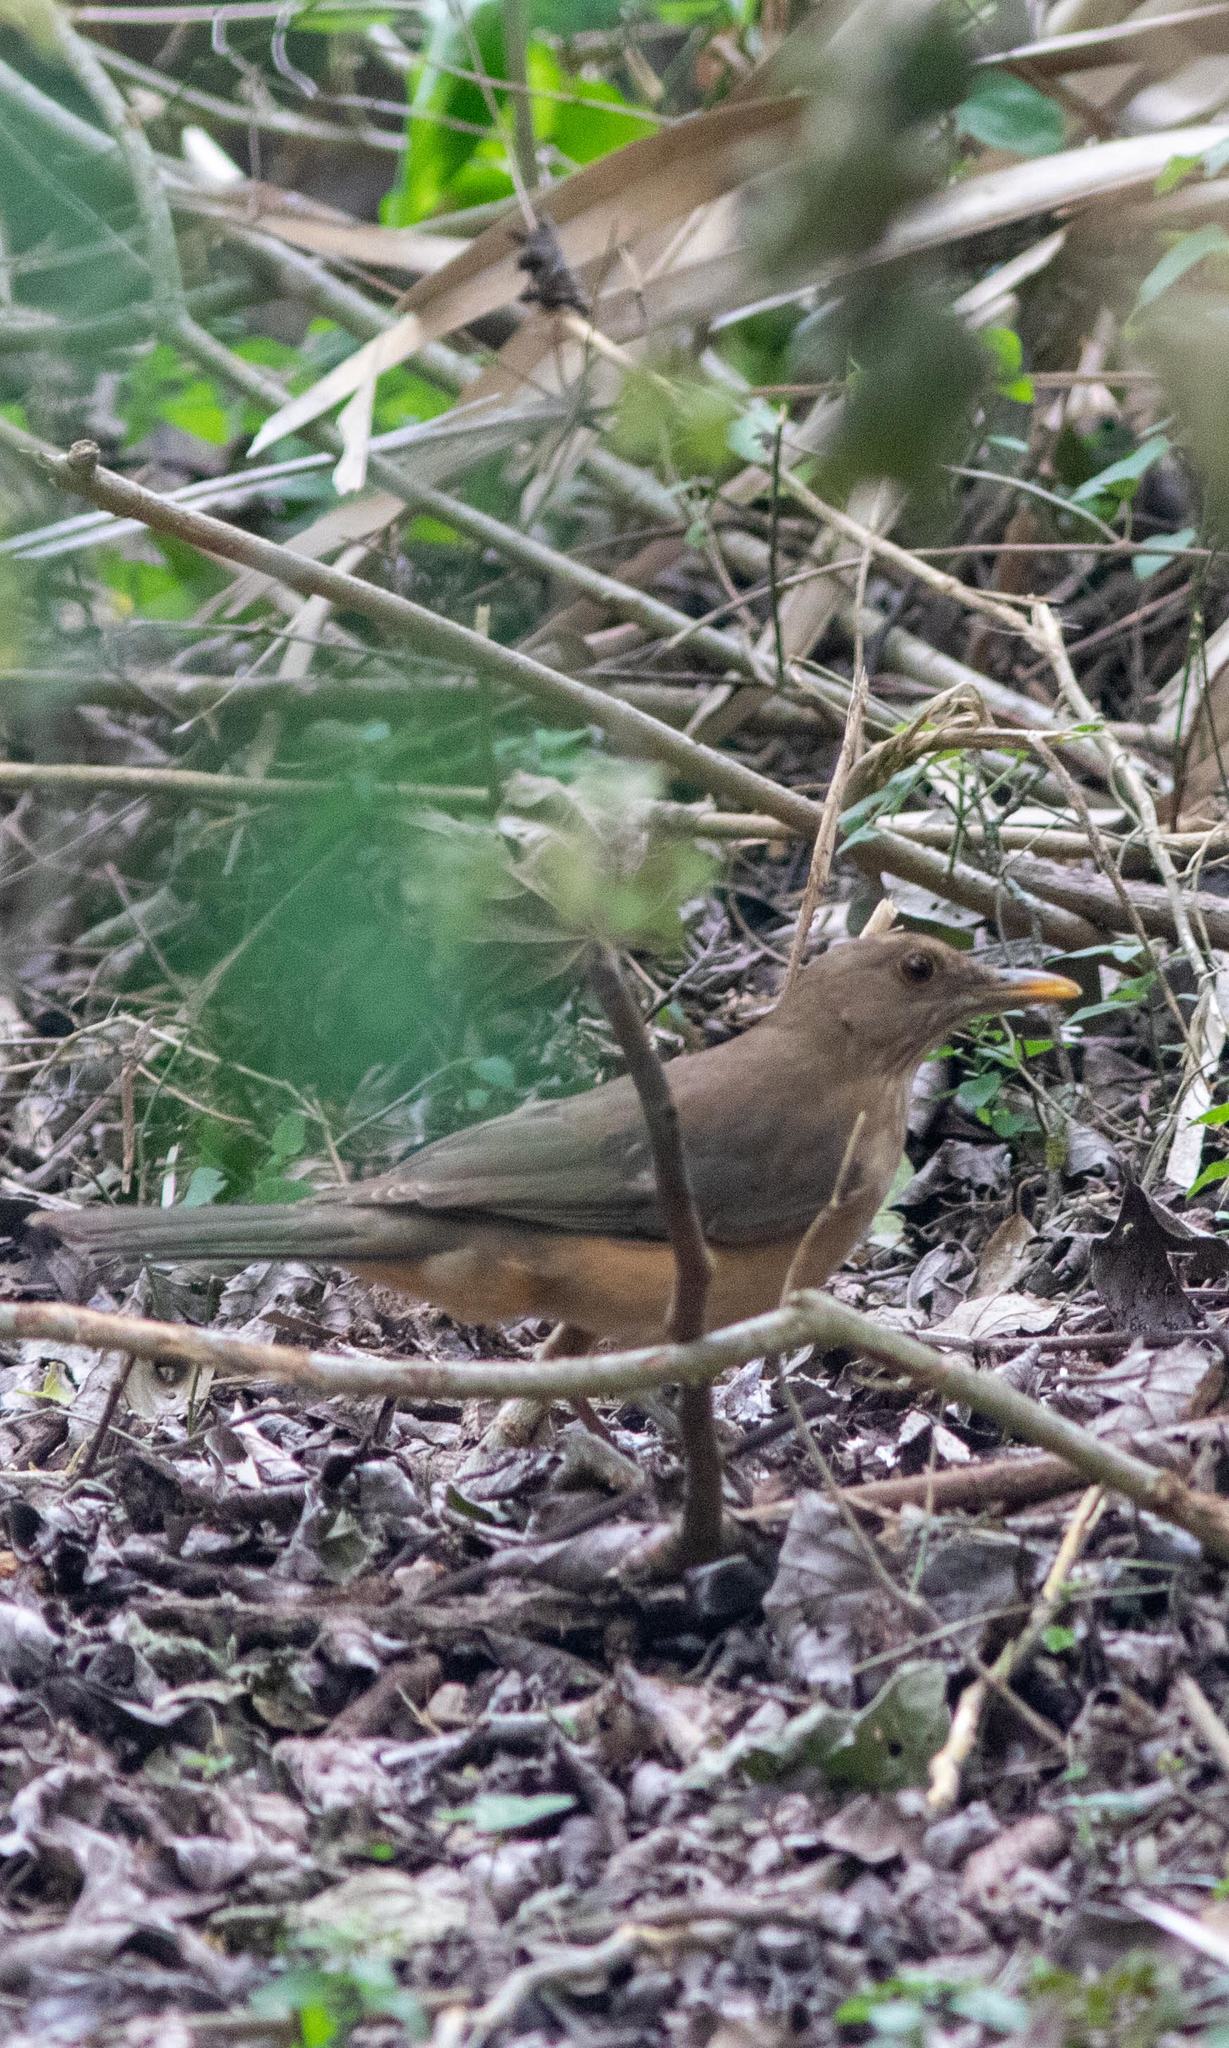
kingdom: Animalia
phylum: Chordata
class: Aves
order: Passeriformes
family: Turdidae
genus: Turdus
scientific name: Turdus grayi
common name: Clay-colored thrush
